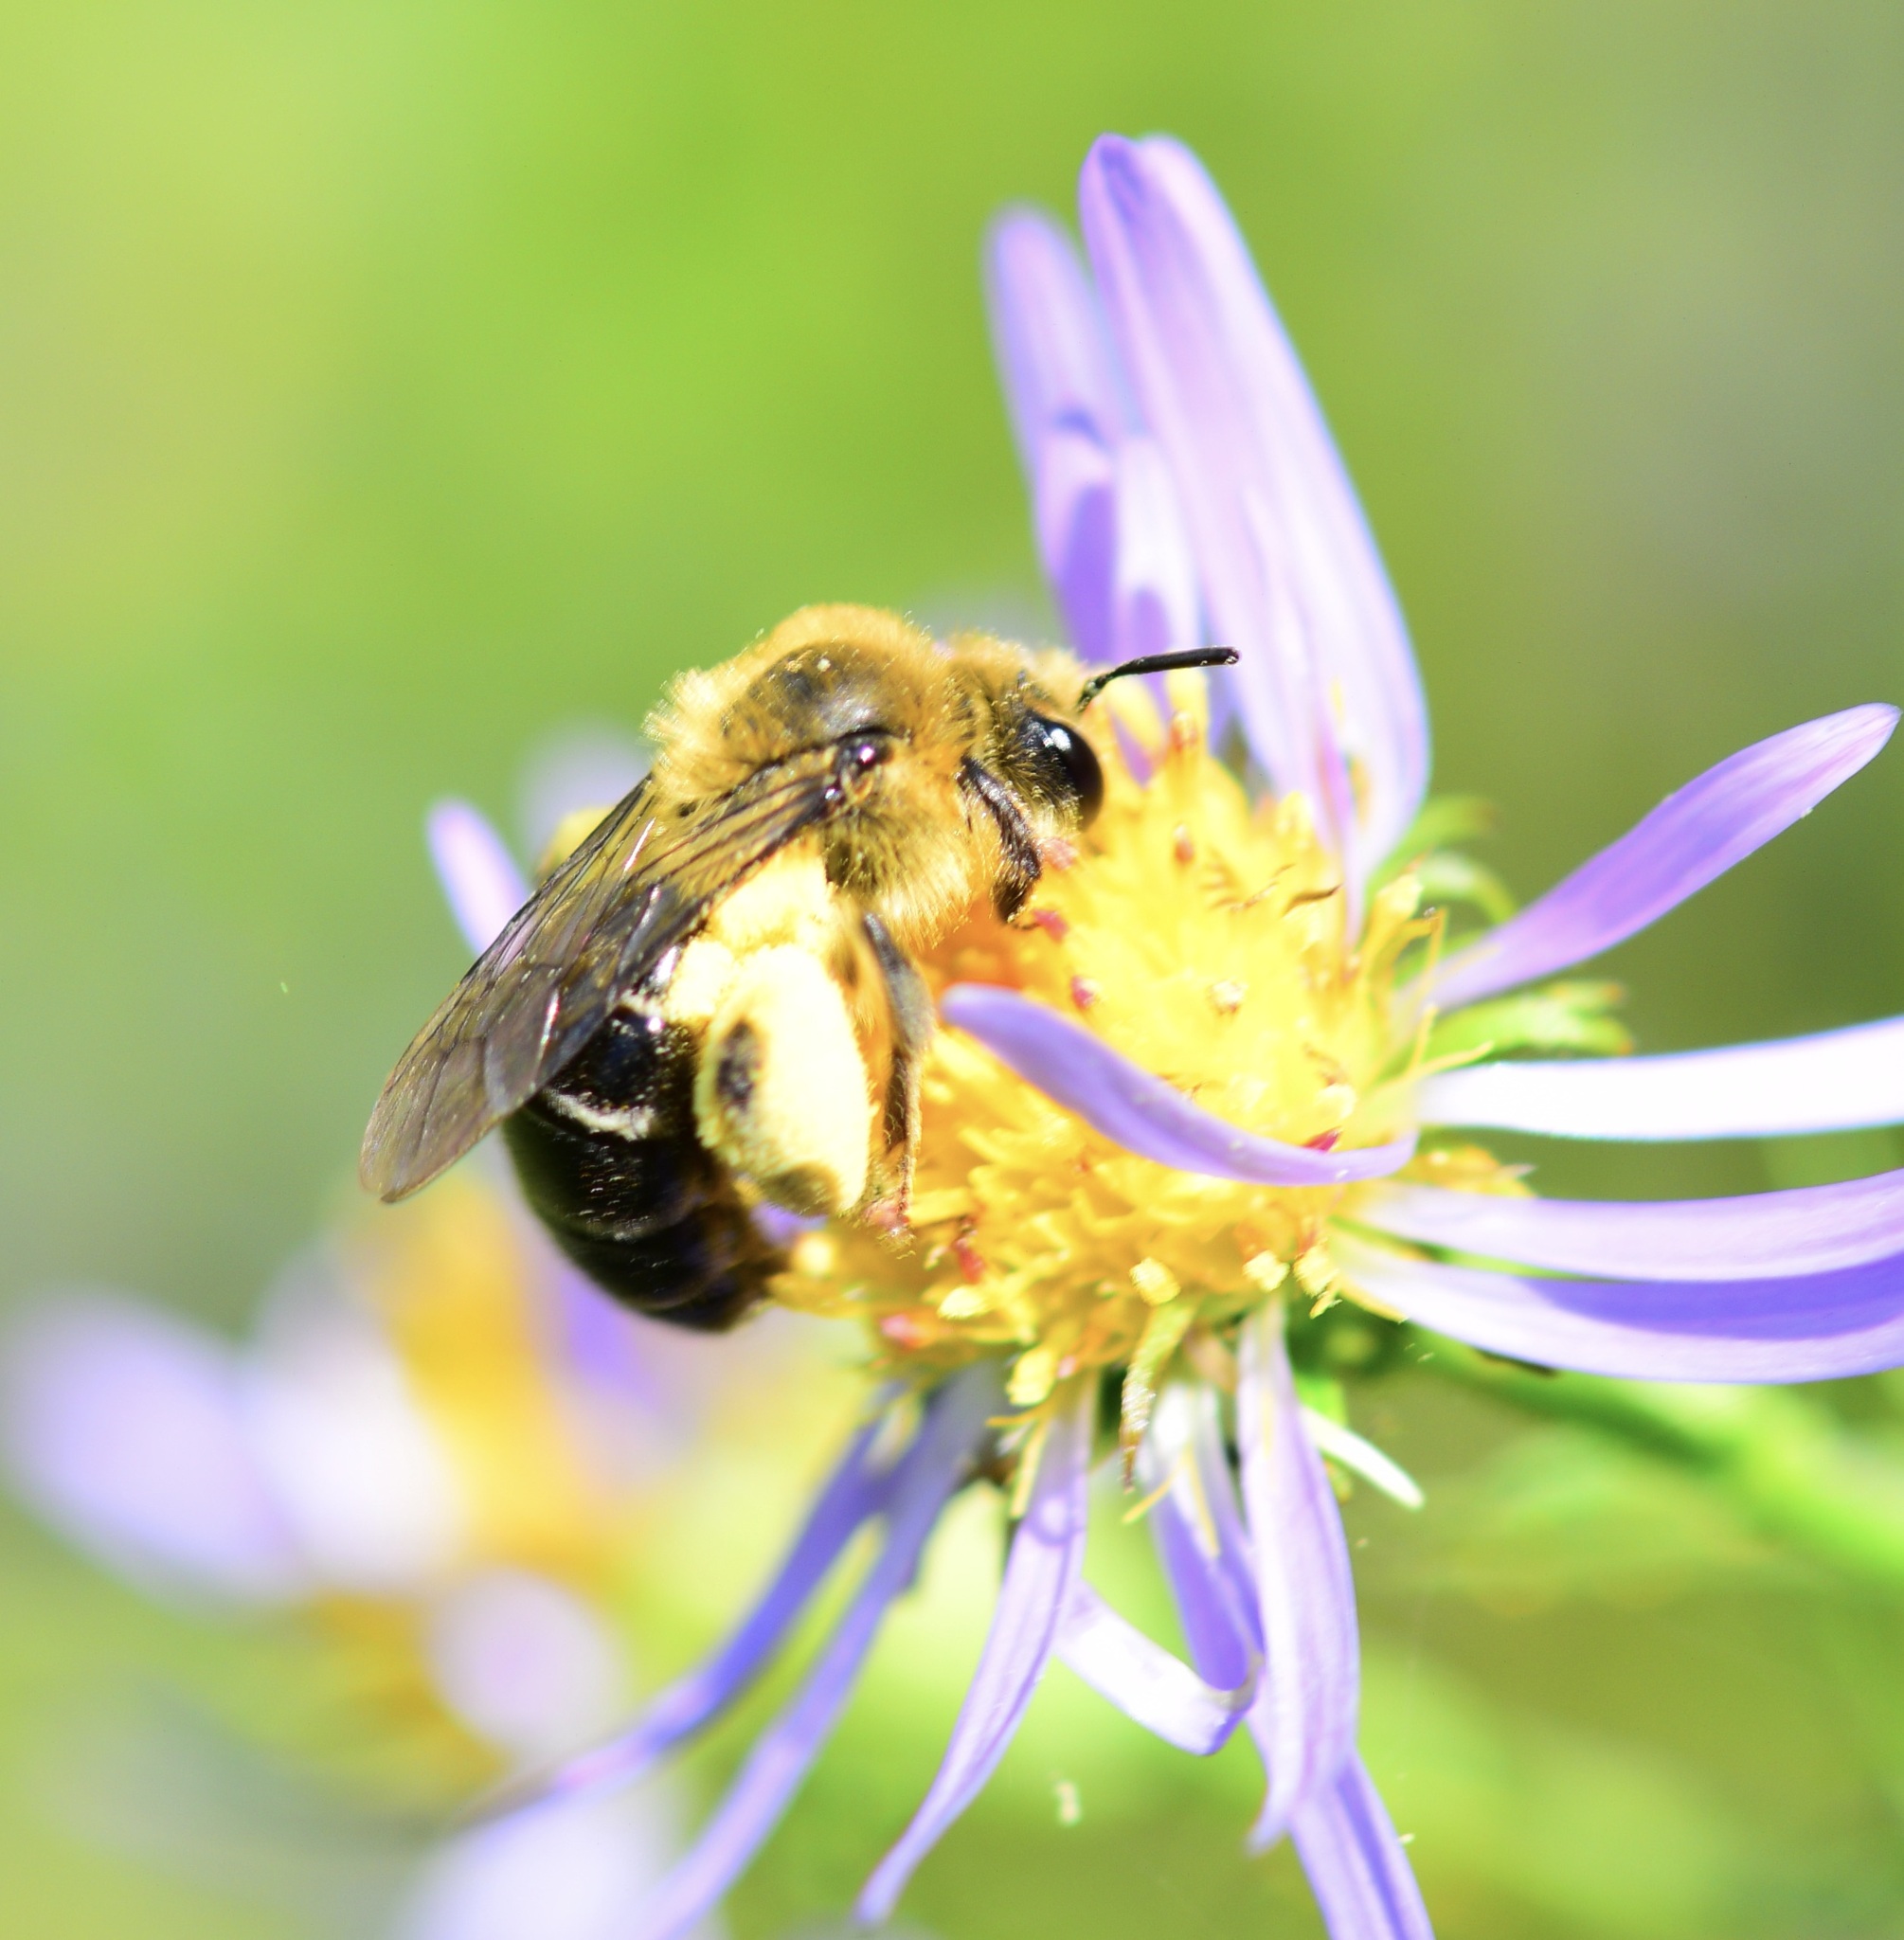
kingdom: Animalia
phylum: Arthropoda
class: Insecta
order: Hymenoptera
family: Andrenidae
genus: Andrena
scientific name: Andrena asteris
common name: Aster mining bee
